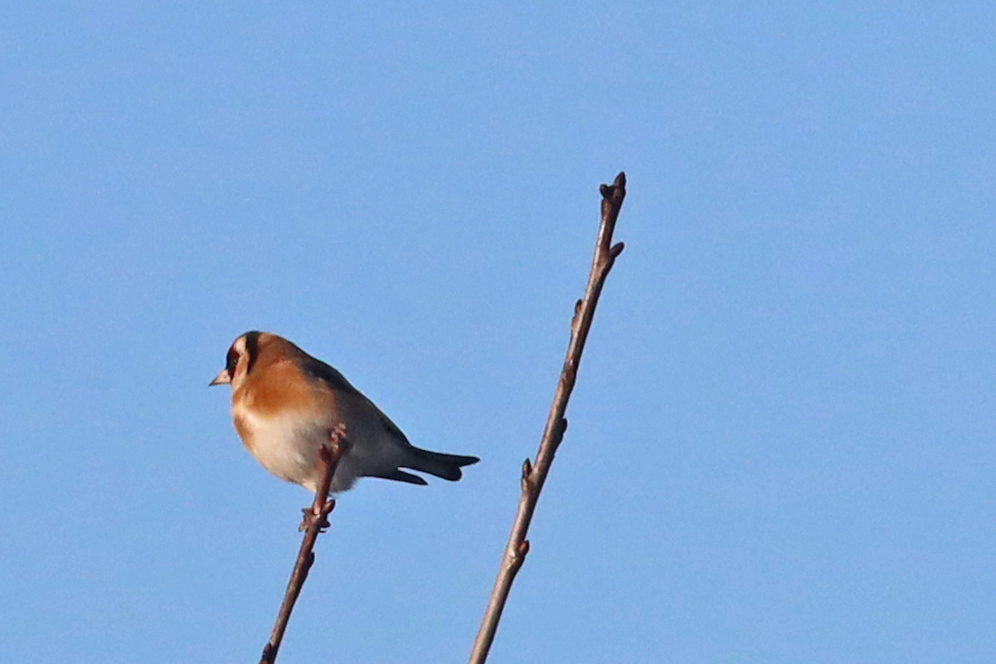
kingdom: Animalia
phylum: Chordata
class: Aves
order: Passeriformes
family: Fringillidae
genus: Carduelis
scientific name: Carduelis carduelis
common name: European goldfinch
